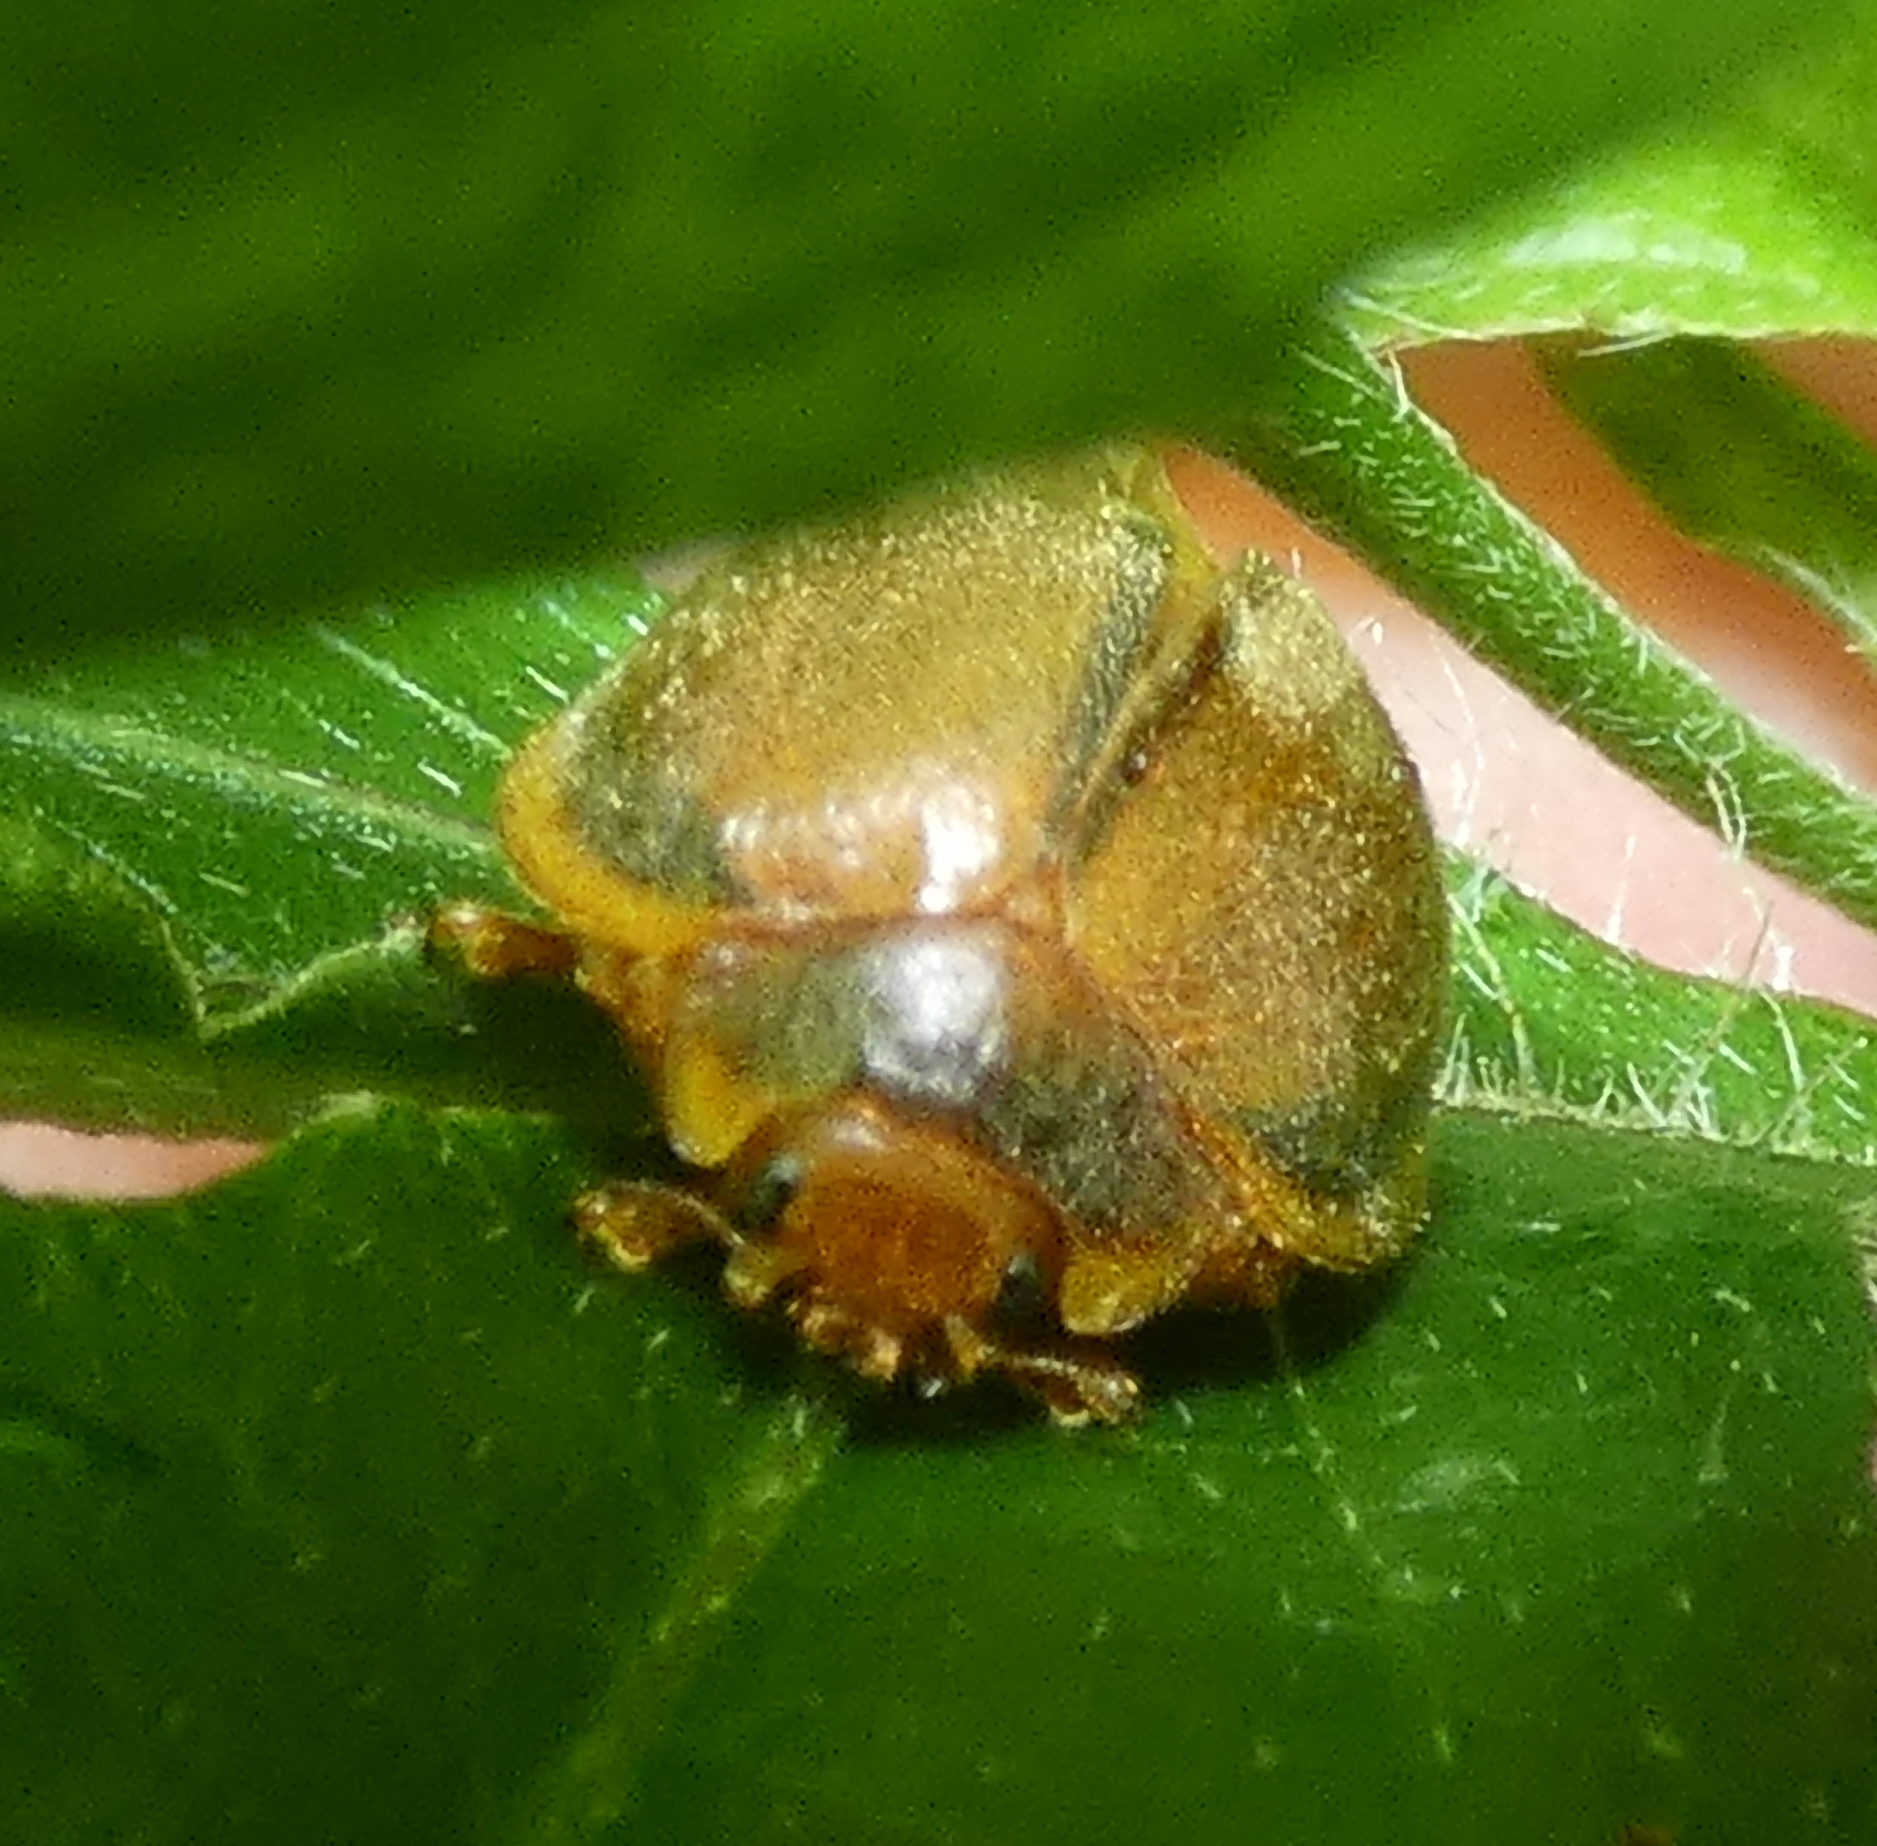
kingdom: Animalia
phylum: Arthropoda
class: Insecta
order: Coleoptera
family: Coccinellidae
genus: Epilachna
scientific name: Epilachna cacica
